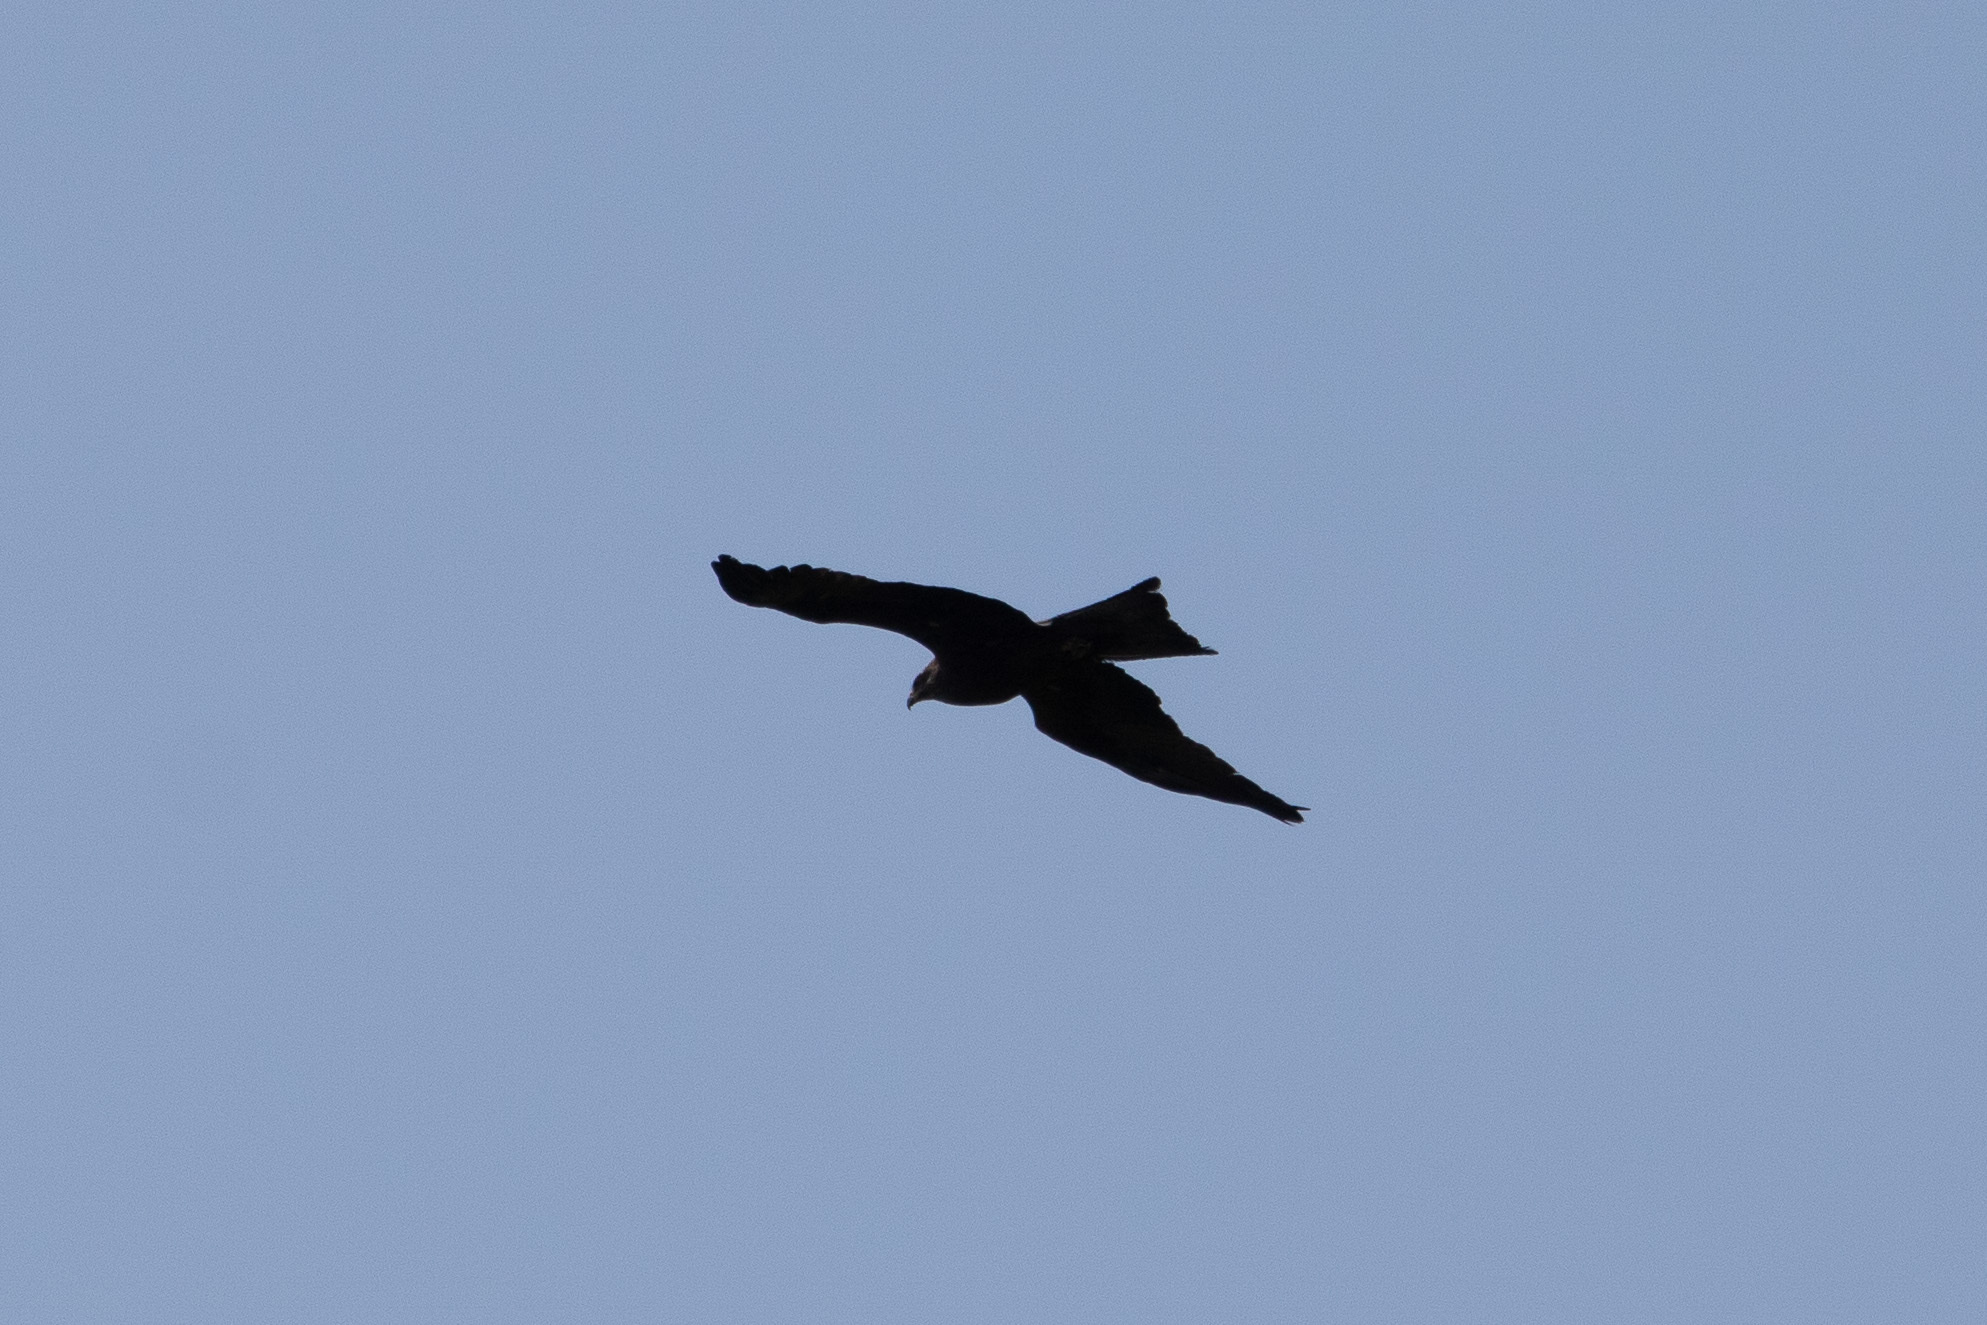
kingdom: Animalia
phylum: Chordata
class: Aves
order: Accipitriformes
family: Accipitridae
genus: Milvus
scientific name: Milvus migrans
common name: Black kite
